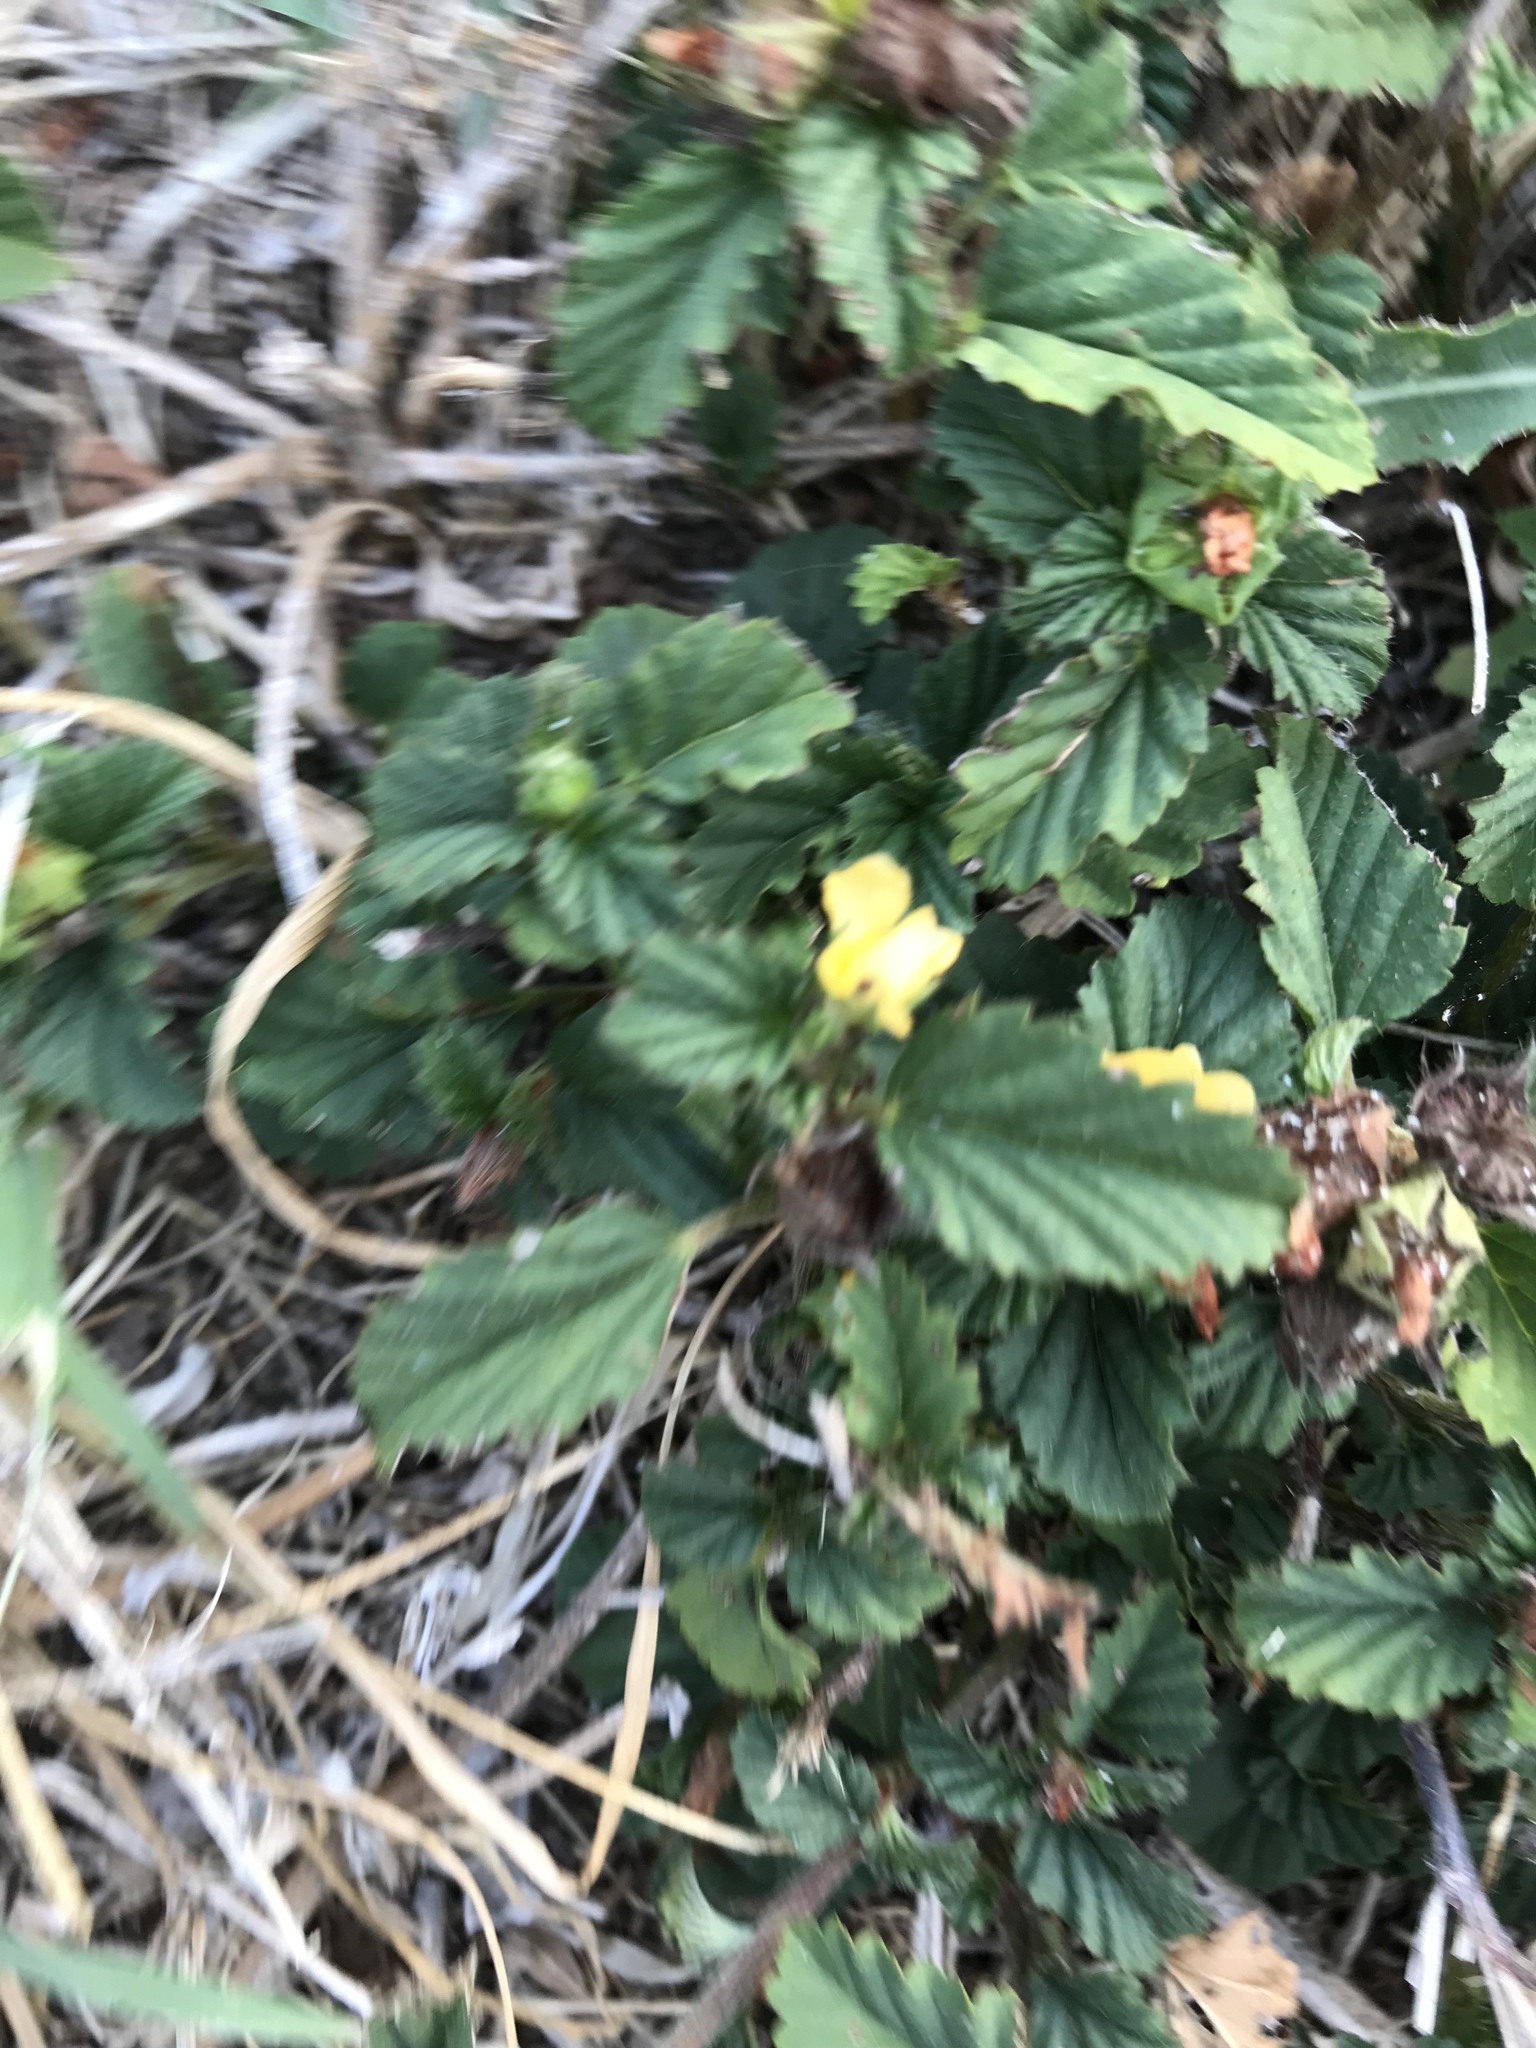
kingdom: Plantae
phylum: Tracheophyta
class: Magnoliopsida
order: Malvales
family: Malvaceae
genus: Malvastrum
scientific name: Malvastrum coromandelianum
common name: Threelobe false mallow
